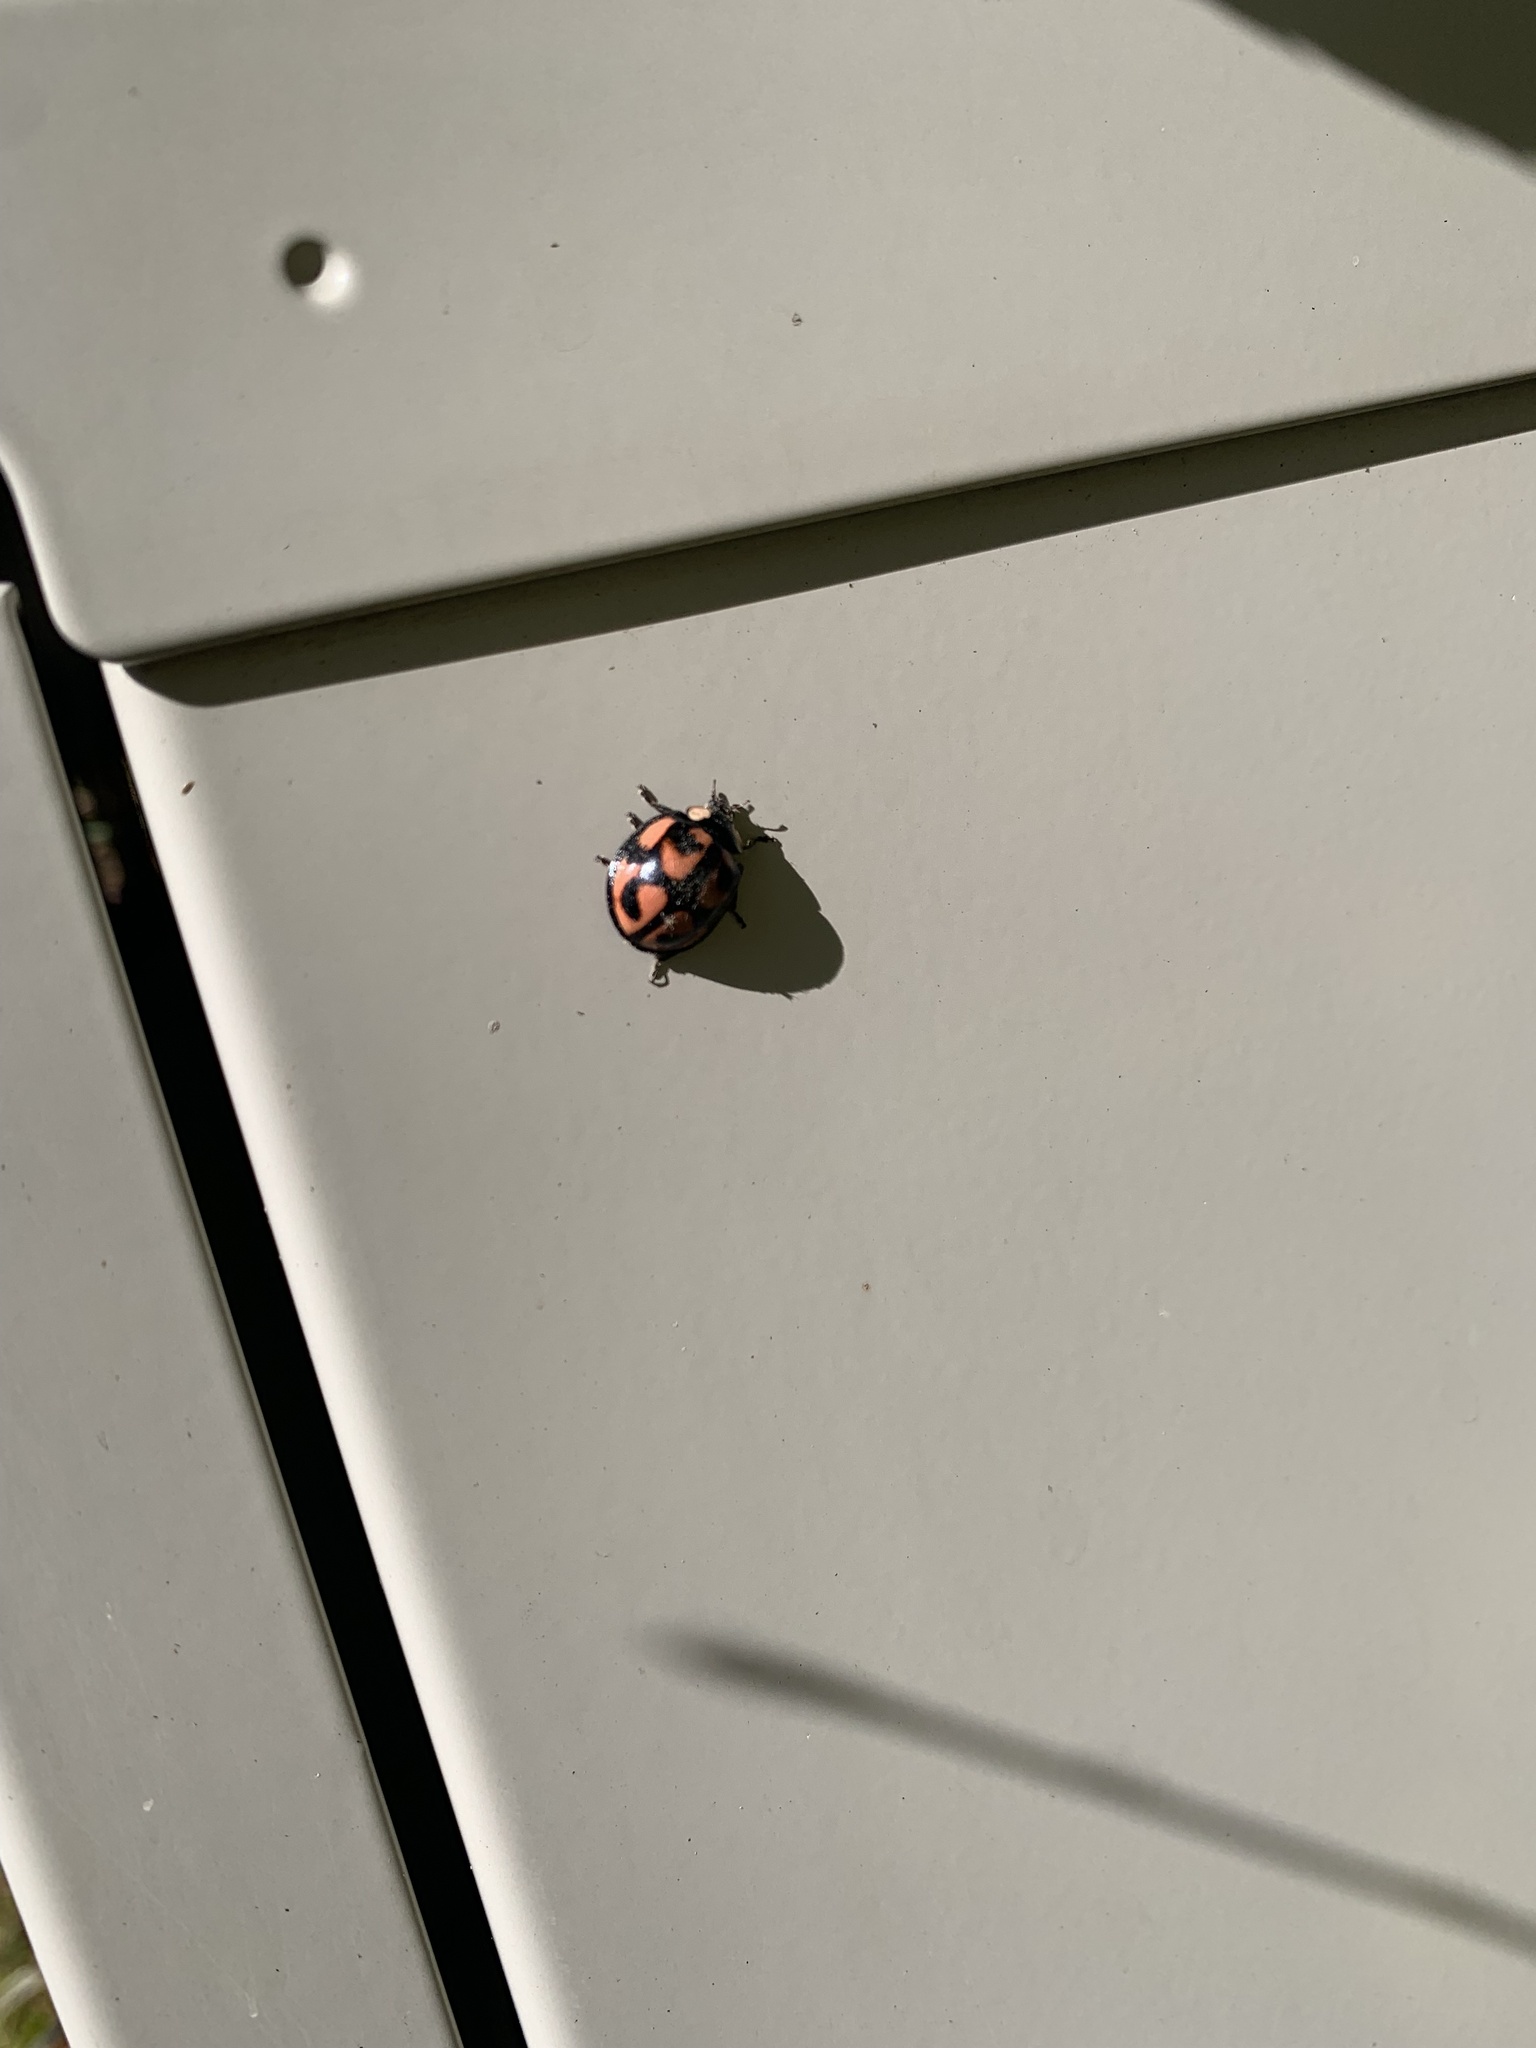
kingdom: Animalia
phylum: Arthropoda
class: Insecta
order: Coleoptera
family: Coccinellidae
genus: Aiolocaria
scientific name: Aiolocaria hexaspilota
